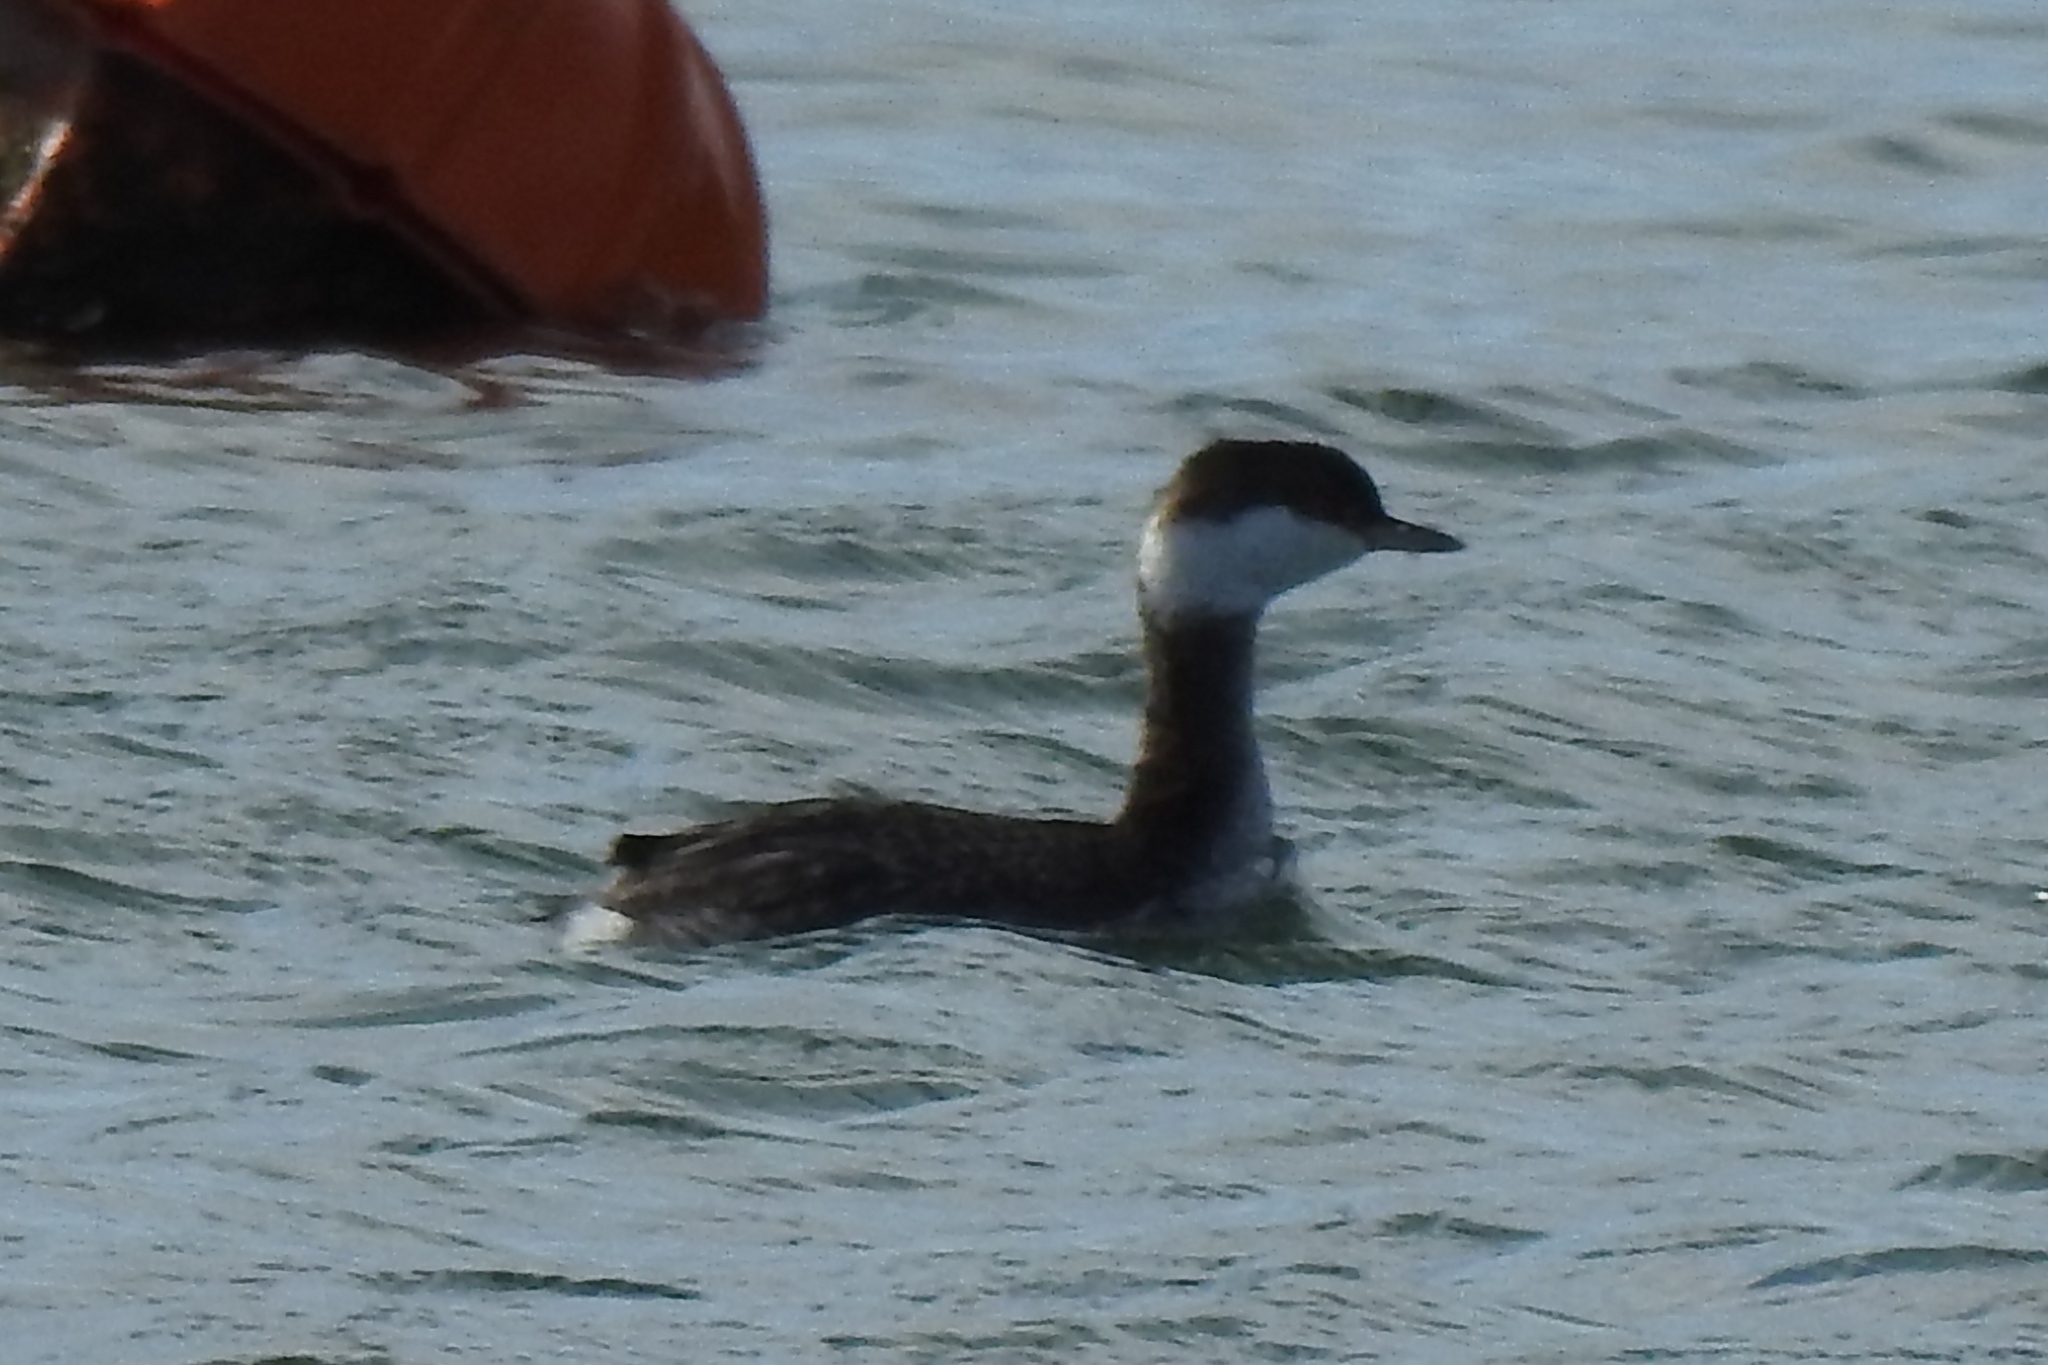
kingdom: Animalia
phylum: Chordata
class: Aves
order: Podicipediformes
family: Podicipedidae
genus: Podiceps
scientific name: Podiceps auritus
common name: Horned grebe
